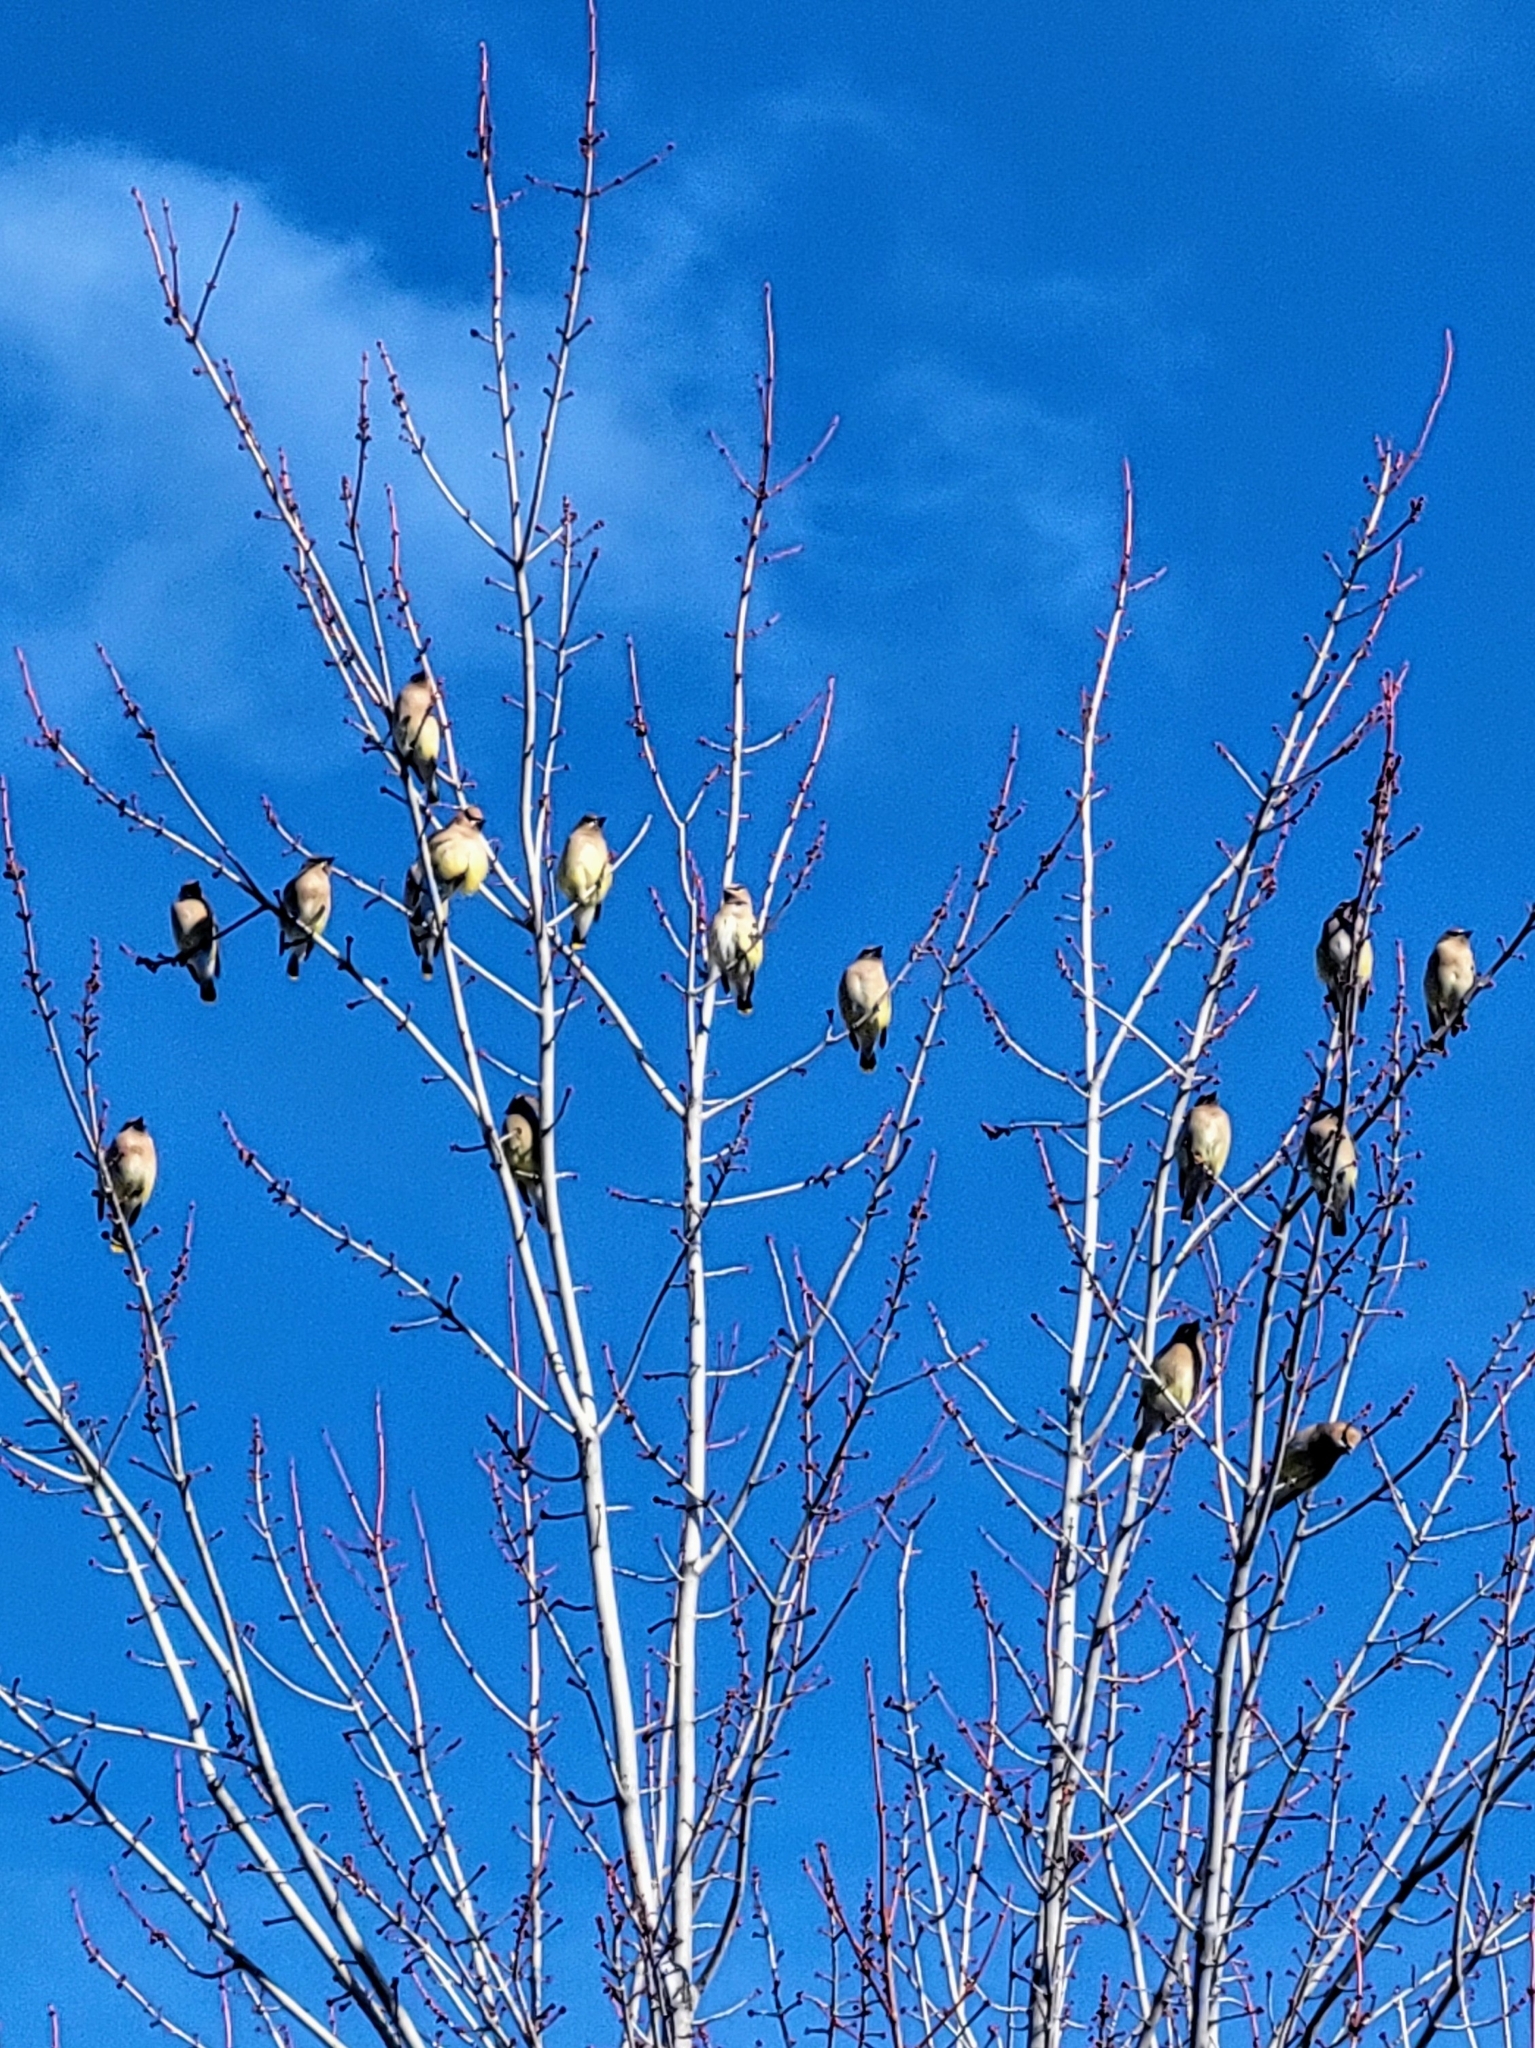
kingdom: Animalia
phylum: Chordata
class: Aves
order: Passeriformes
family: Bombycillidae
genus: Bombycilla
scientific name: Bombycilla cedrorum
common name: Cedar waxwing
